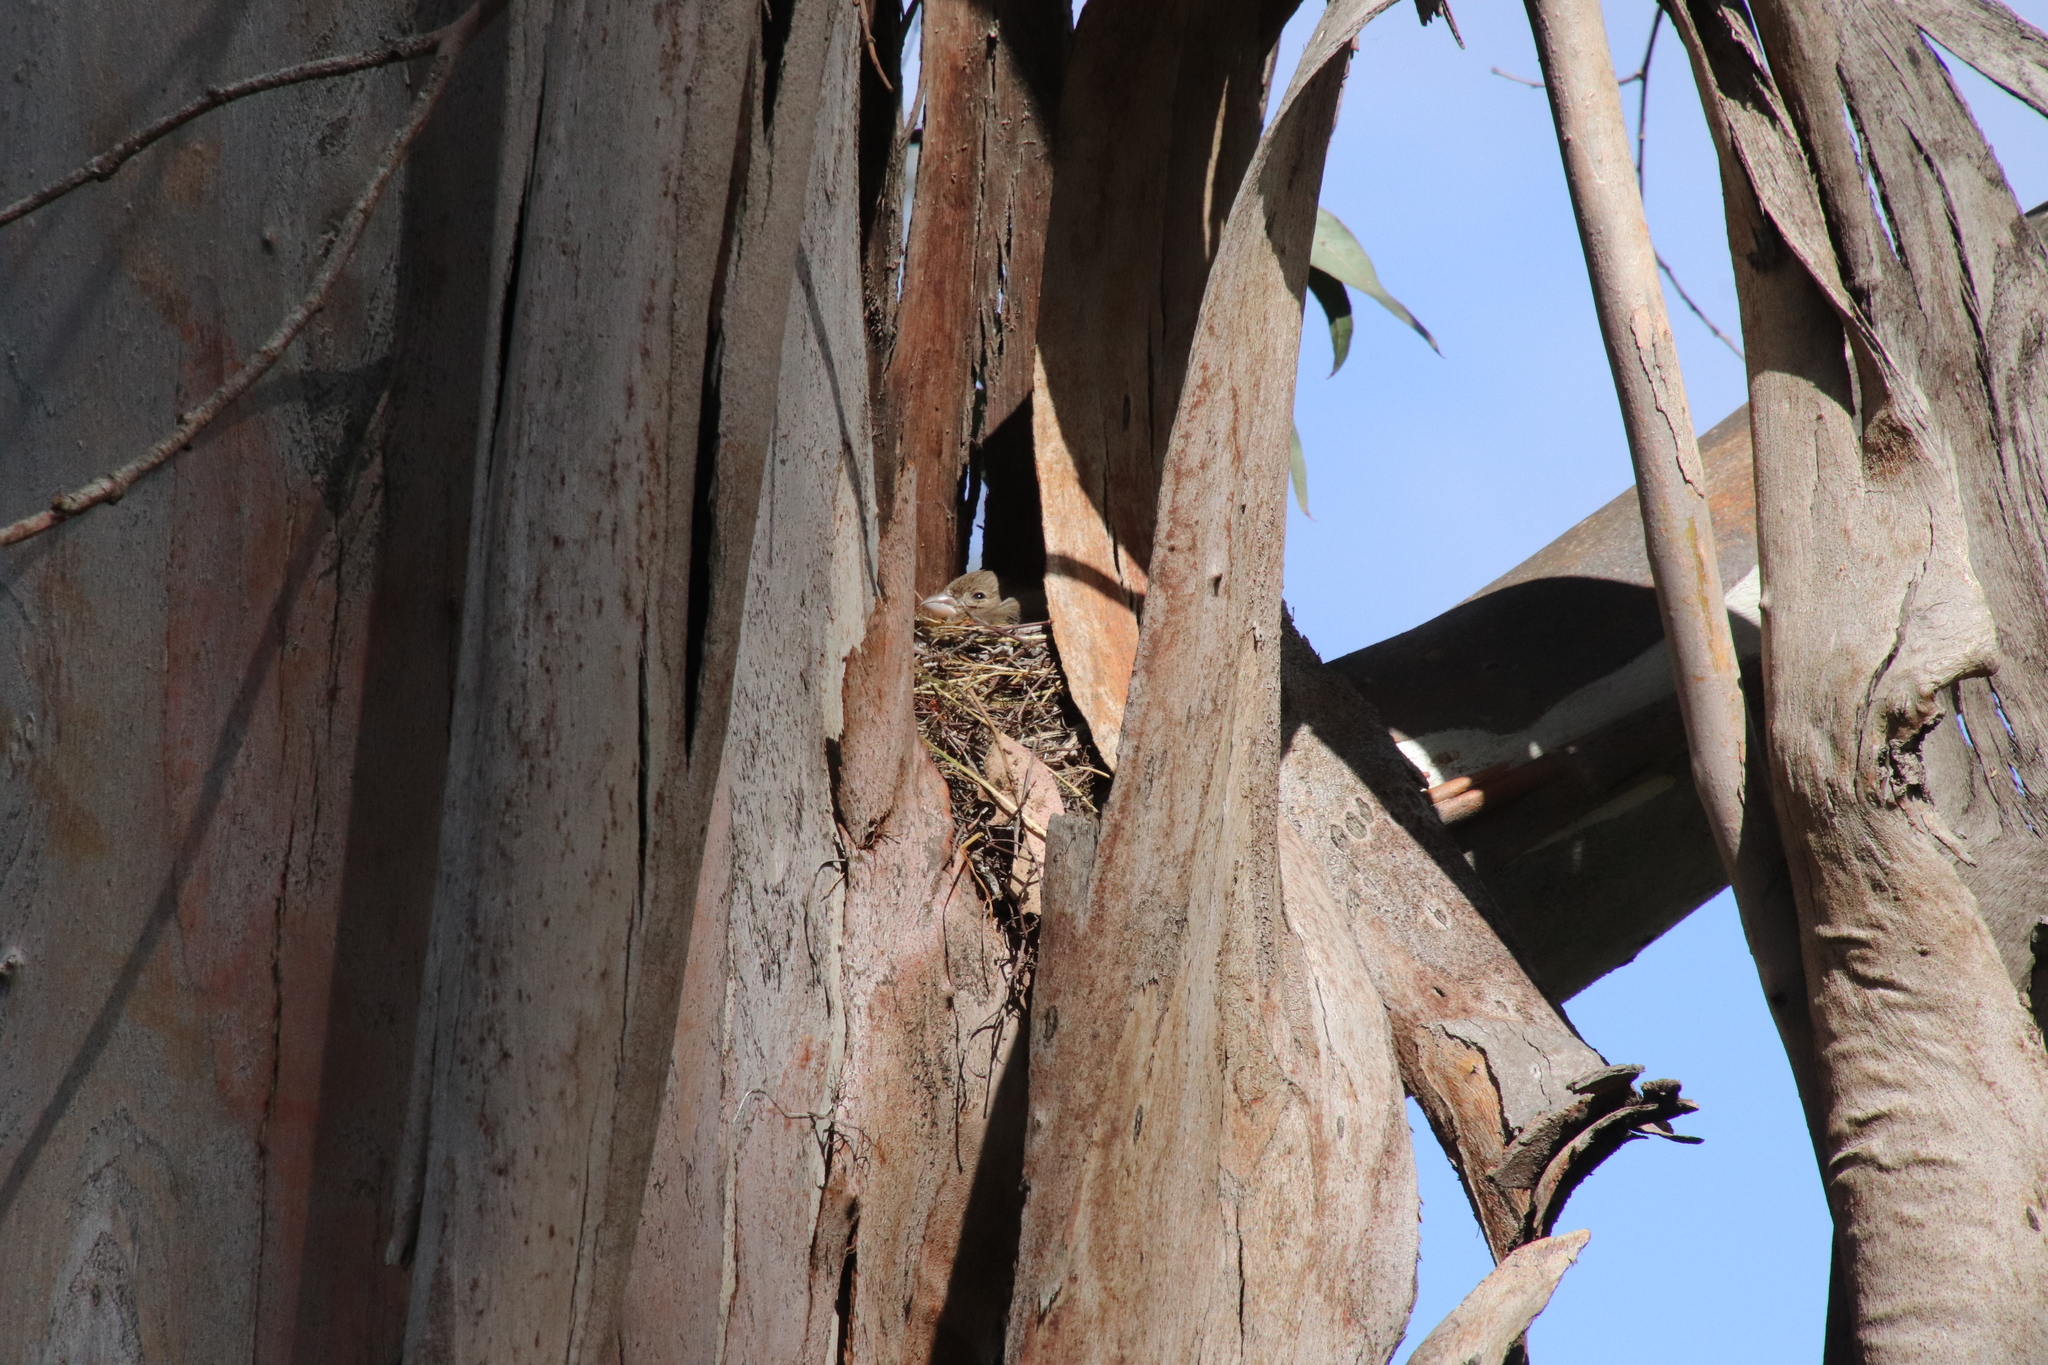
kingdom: Animalia
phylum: Chordata
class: Aves
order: Passeriformes
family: Fringillidae
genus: Haemorhous
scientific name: Haemorhous mexicanus
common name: House finch
